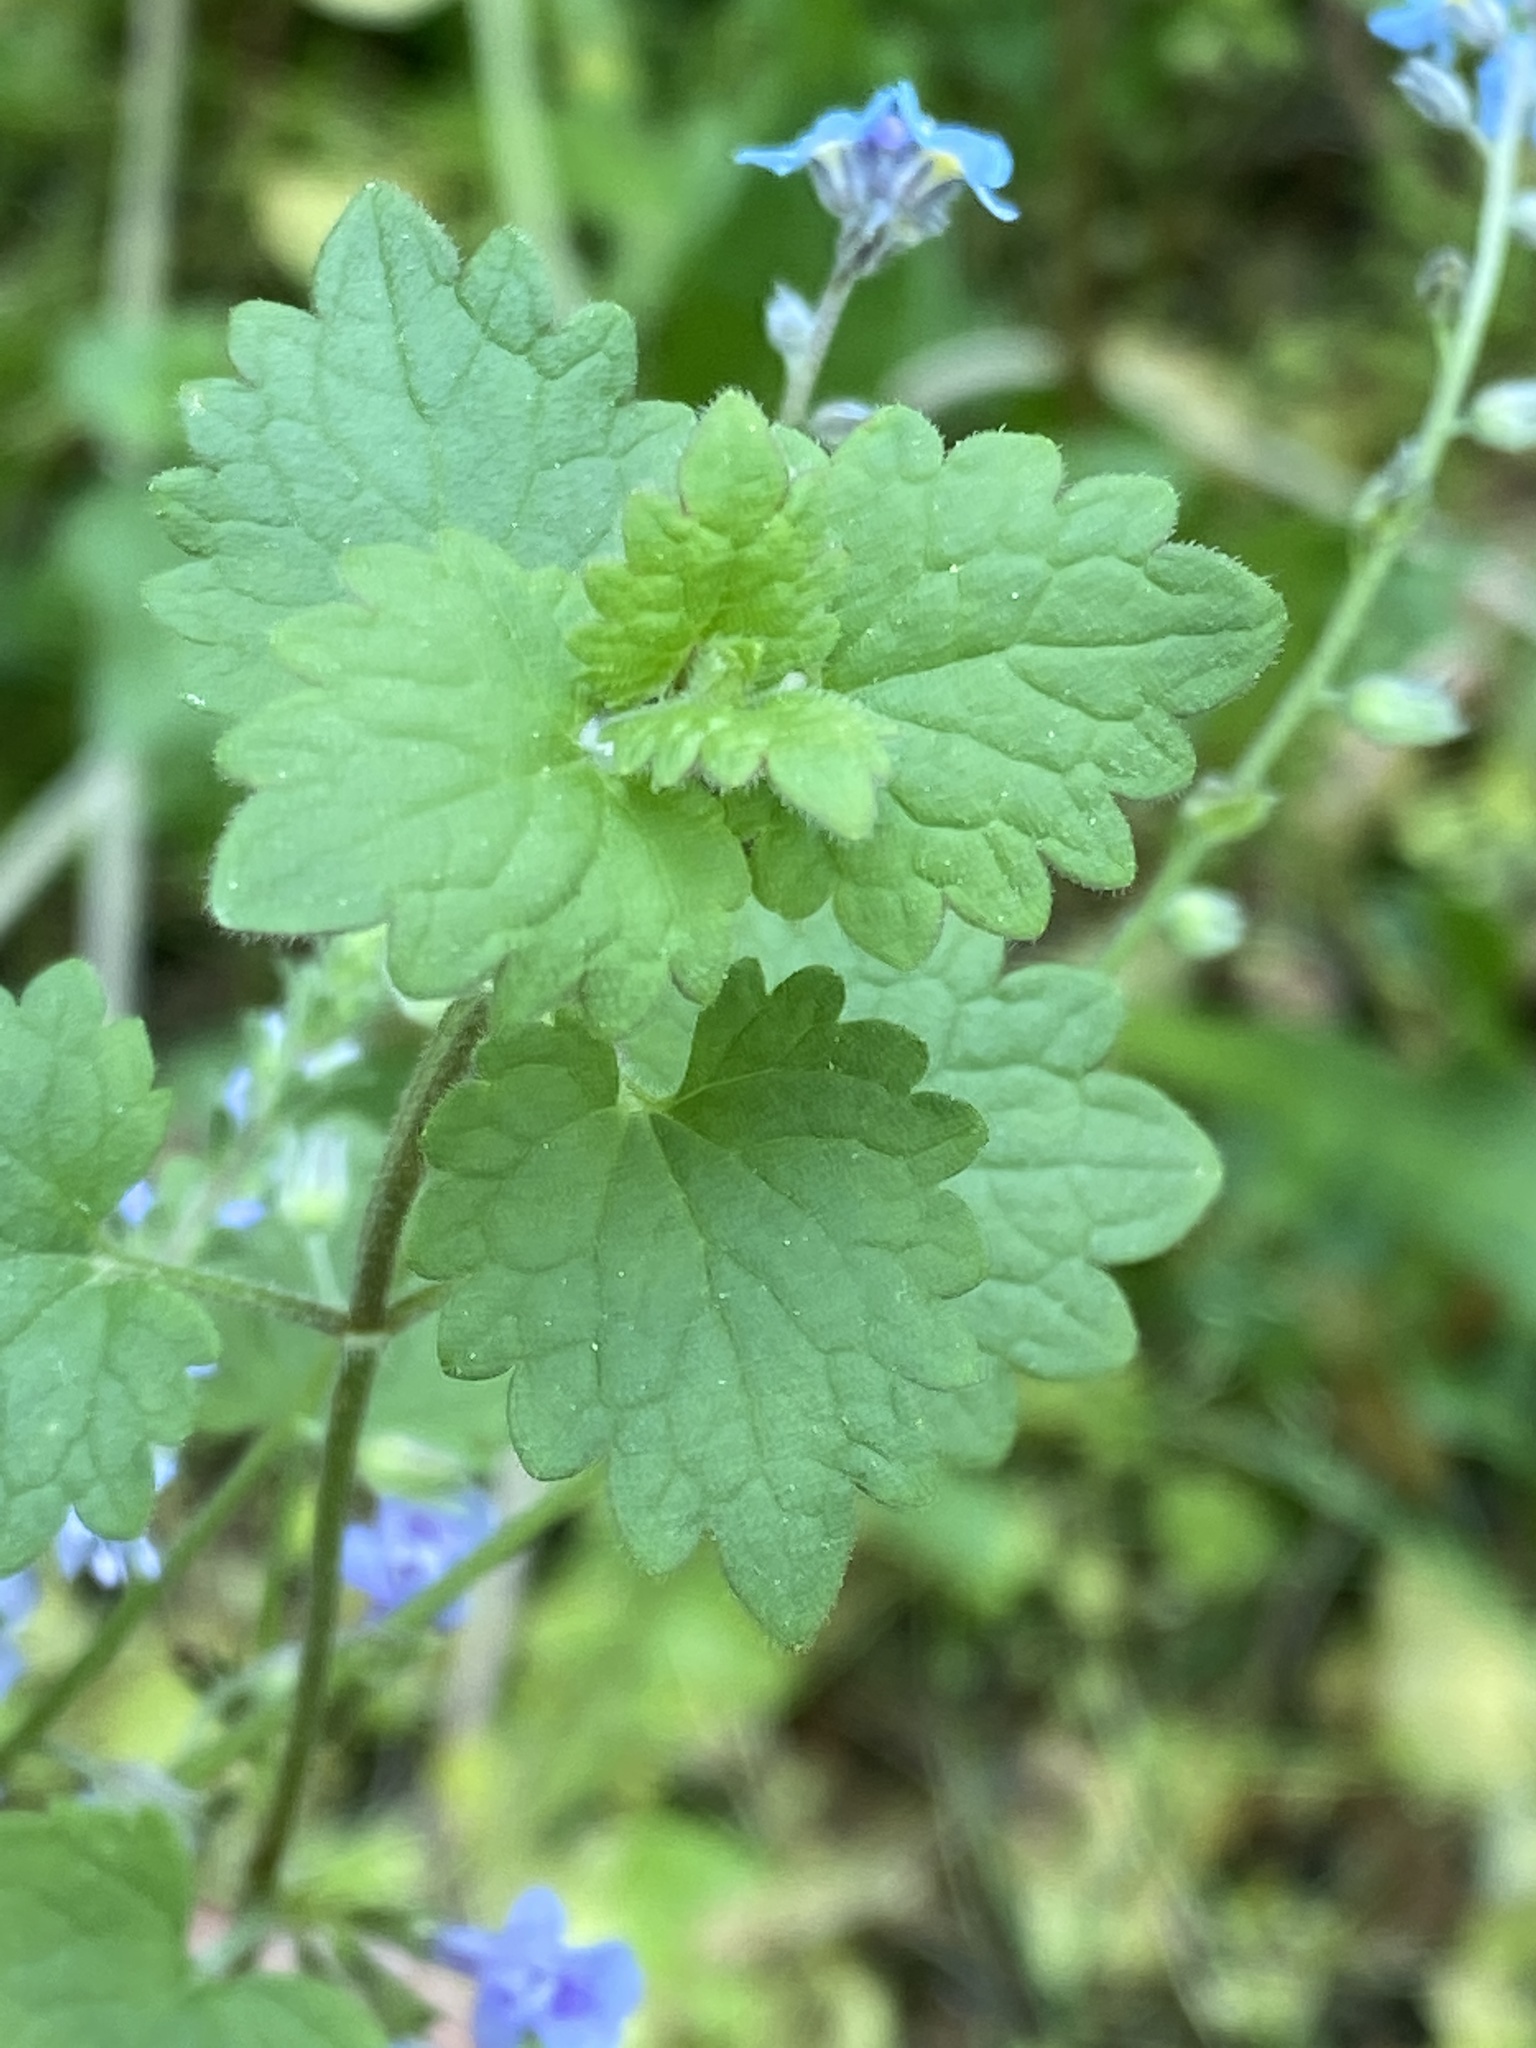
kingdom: Plantae
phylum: Tracheophyta
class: Magnoliopsida
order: Lamiales
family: Lamiaceae
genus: Glechoma
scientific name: Glechoma hederacea
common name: Ground ivy
